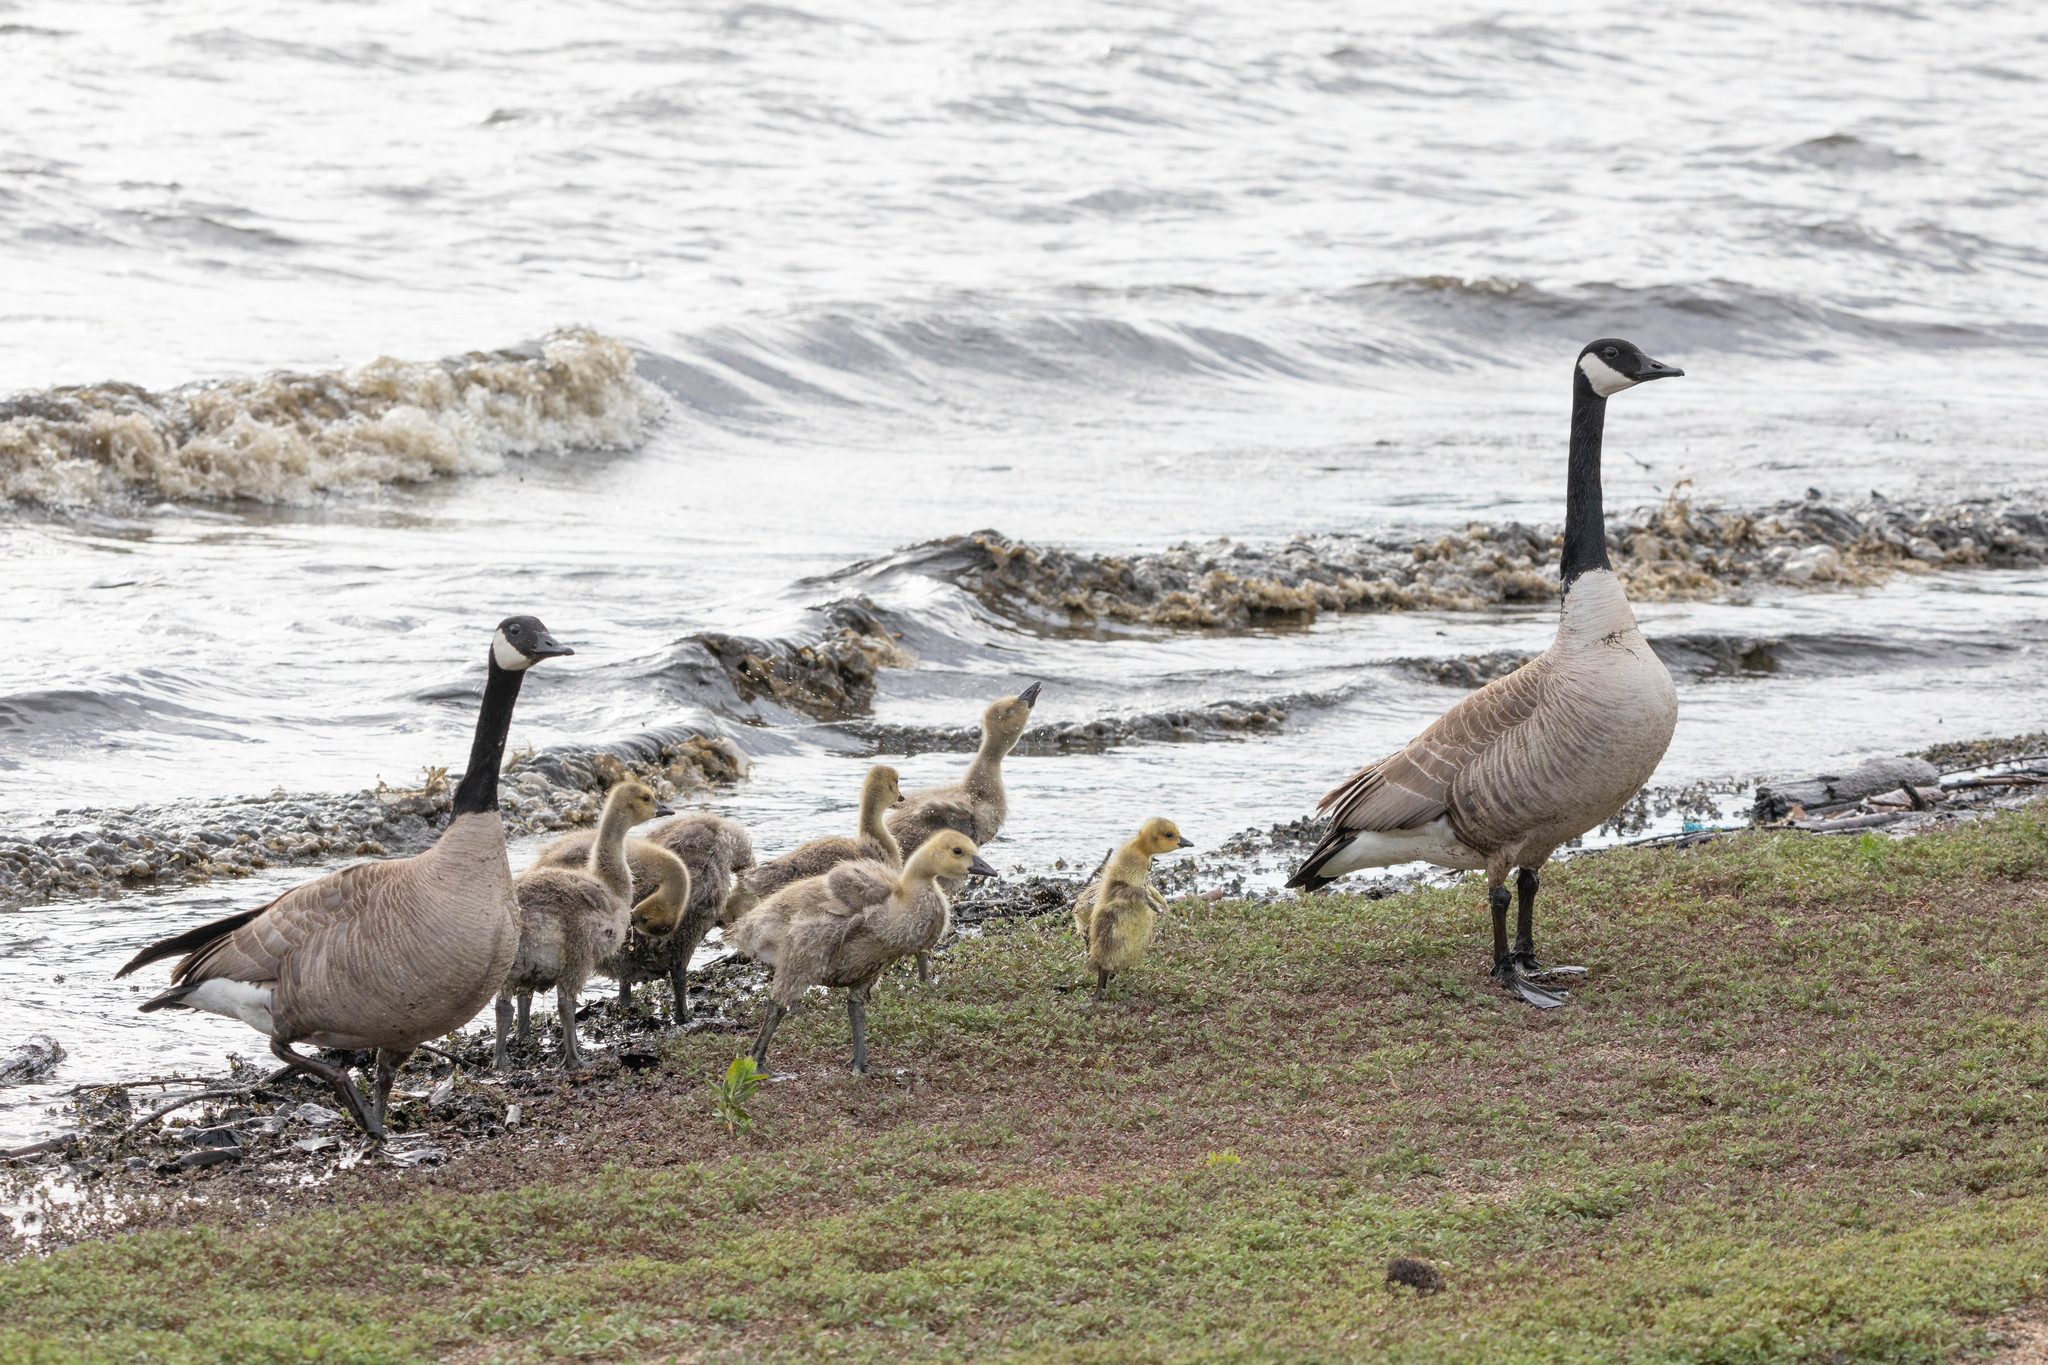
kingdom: Animalia
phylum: Chordata
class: Aves
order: Anseriformes
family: Anatidae
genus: Branta
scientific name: Branta canadensis
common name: Canada goose
